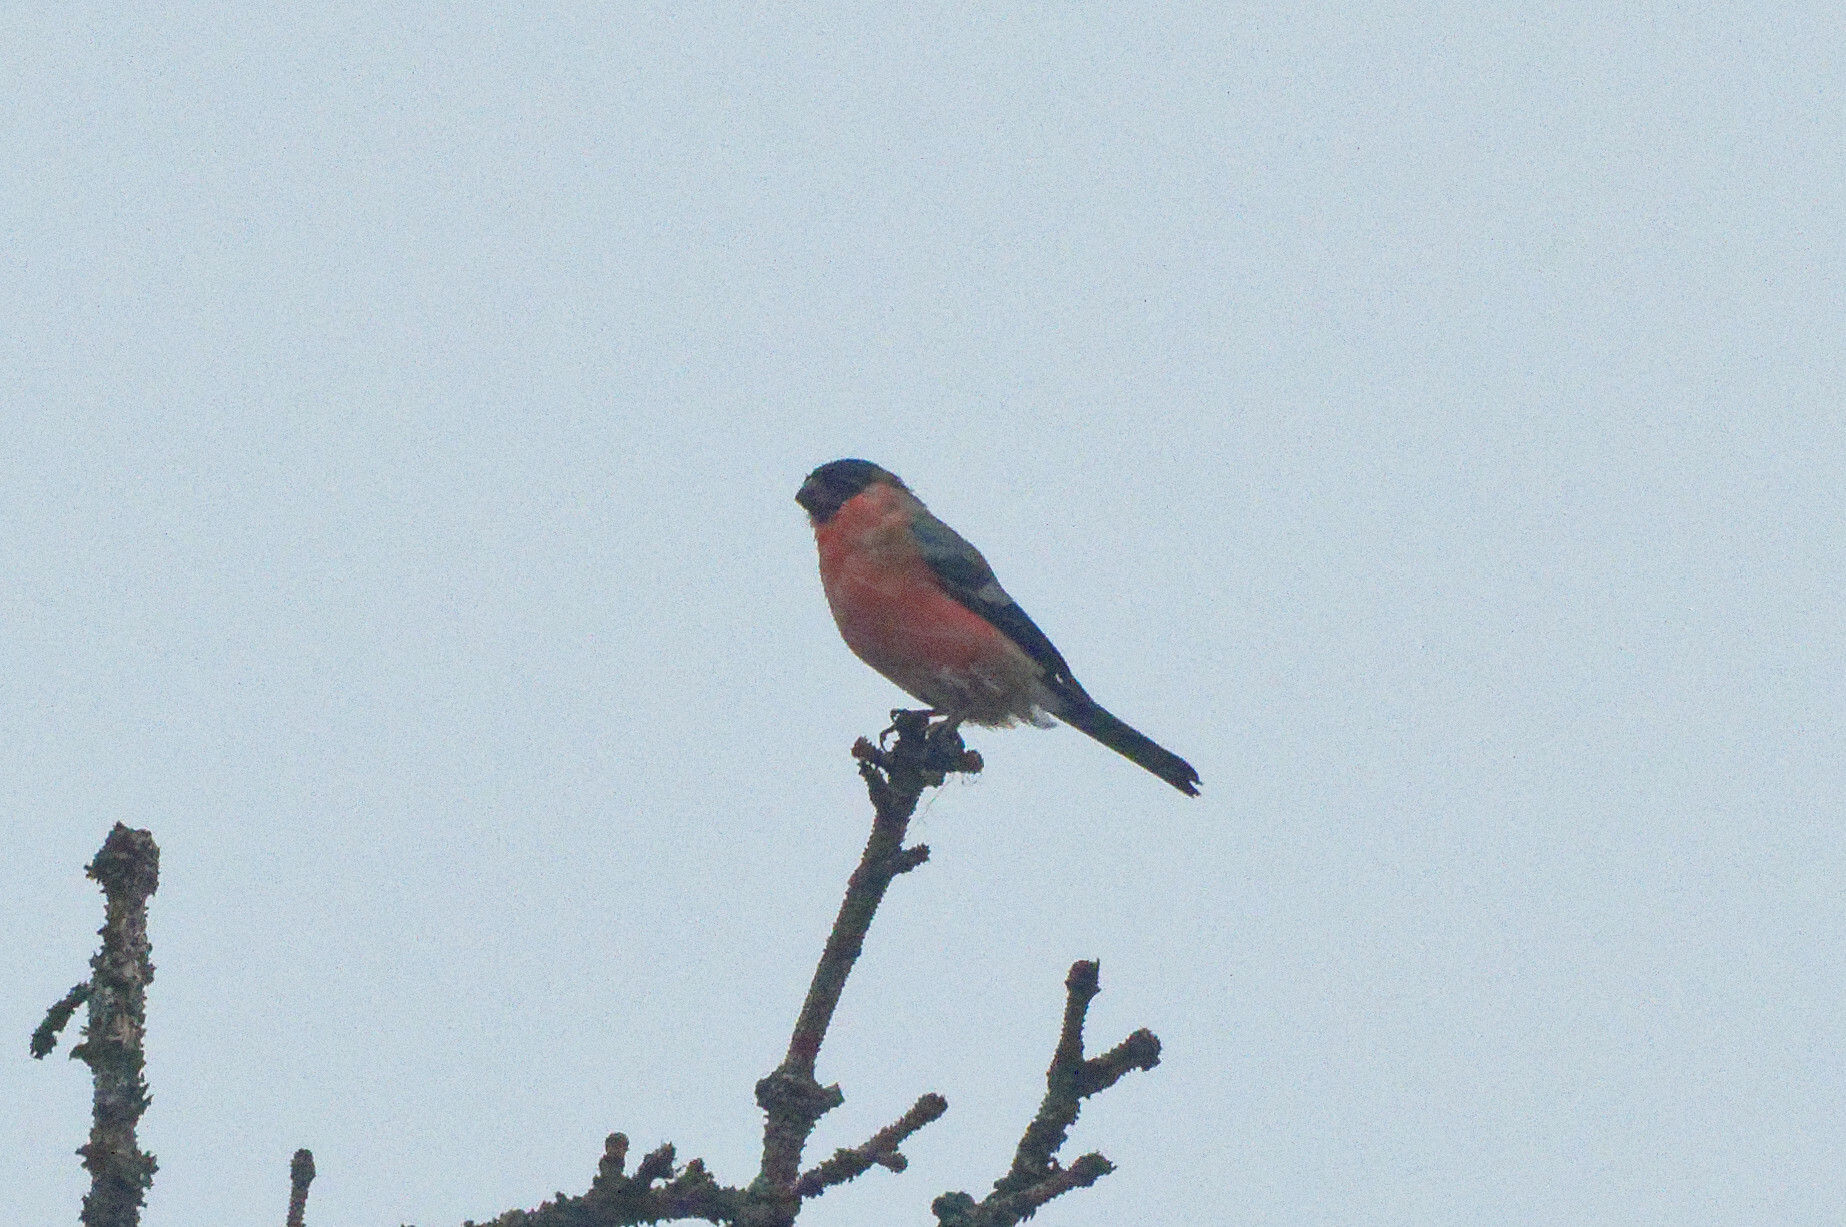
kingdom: Animalia
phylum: Chordata
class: Aves
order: Passeriformes
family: Fringillidae
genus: Pyrrhula
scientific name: Pyrrhula pyrrhula
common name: Eurasian bullfinch
